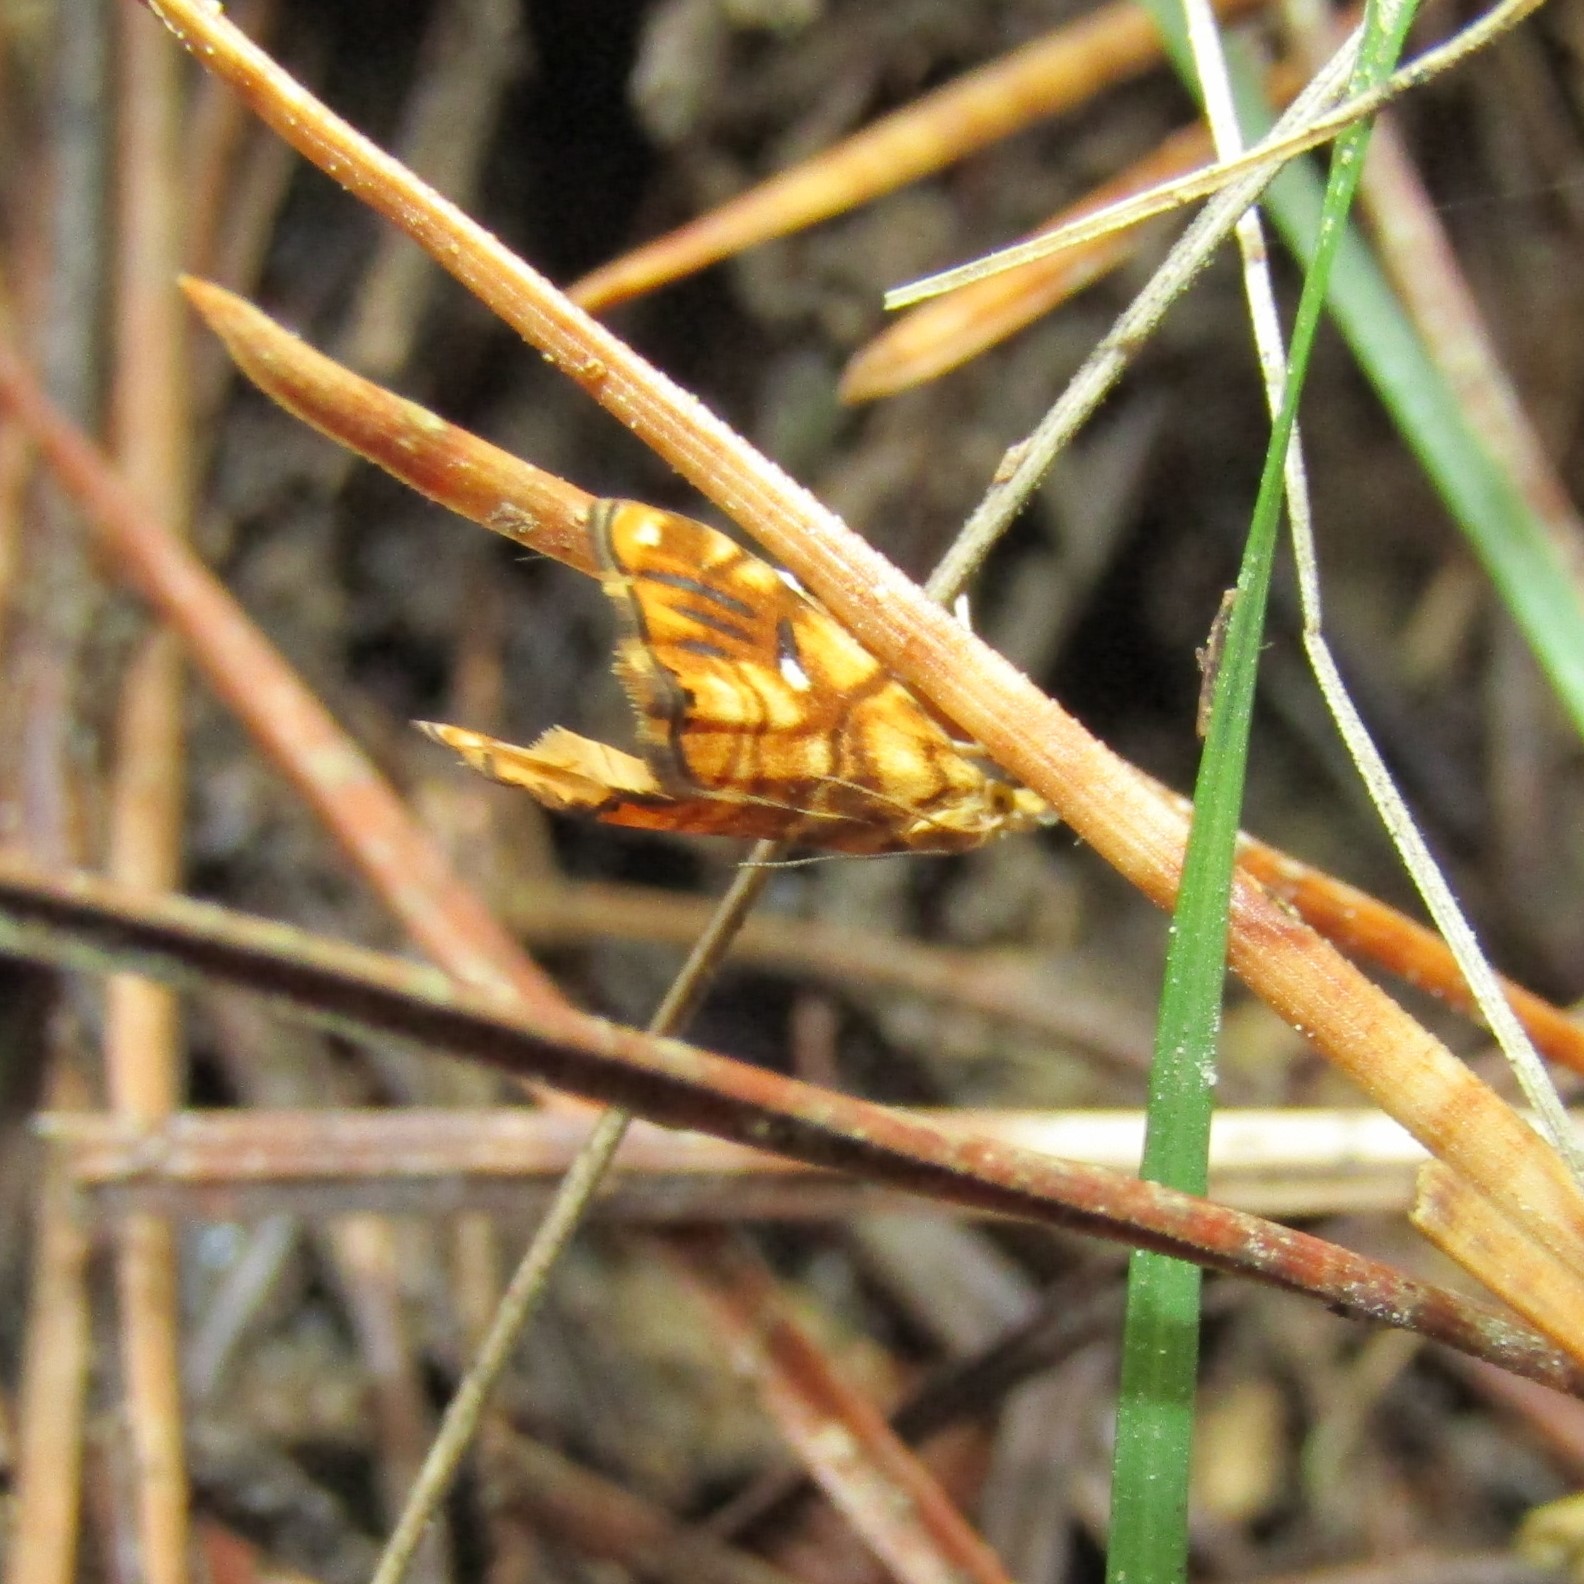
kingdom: Animalia
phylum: Arthropoda
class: Insecta
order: Lepidoptera
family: Crambidae
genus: Glaucocharis
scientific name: Glaucocharis selenaea
